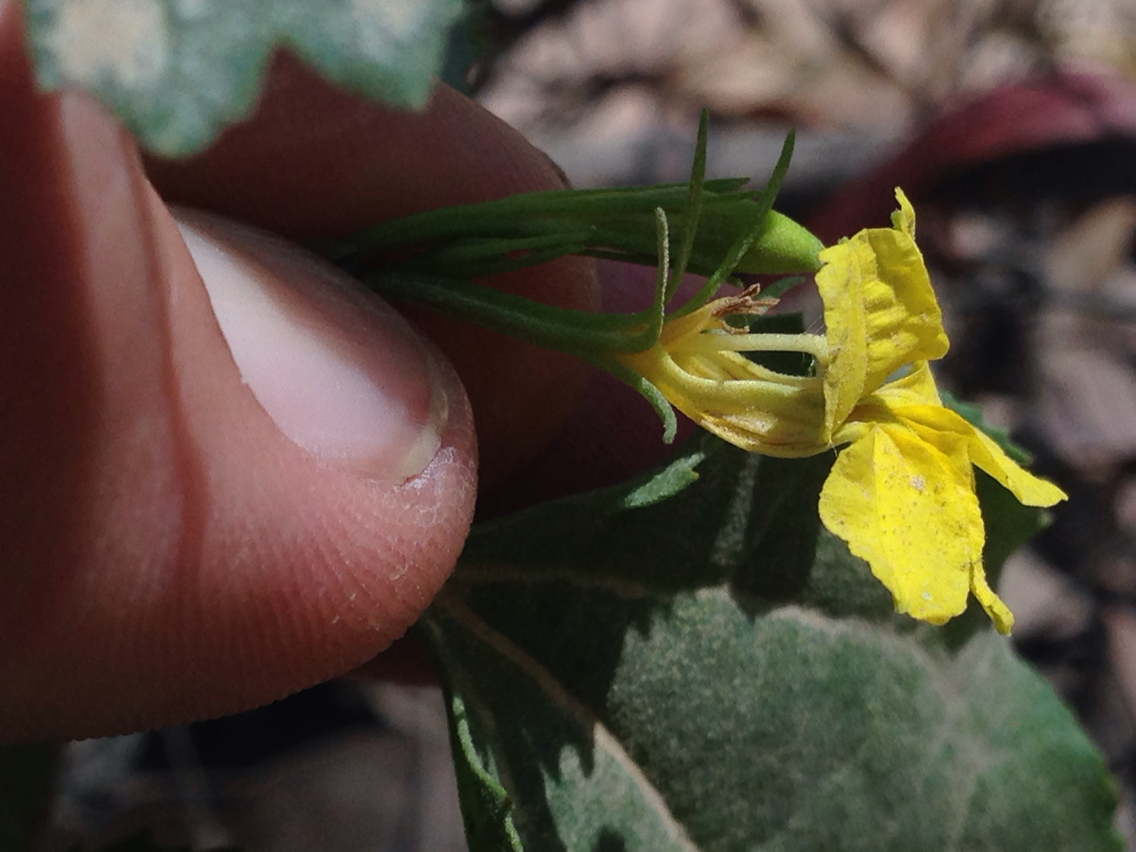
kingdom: Plantae
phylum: Tracheophyta
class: Magnoliopsida
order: Asterales
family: Goodeniaceae
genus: Goodenia
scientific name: Goodenia ovata
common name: Hop goodenia
